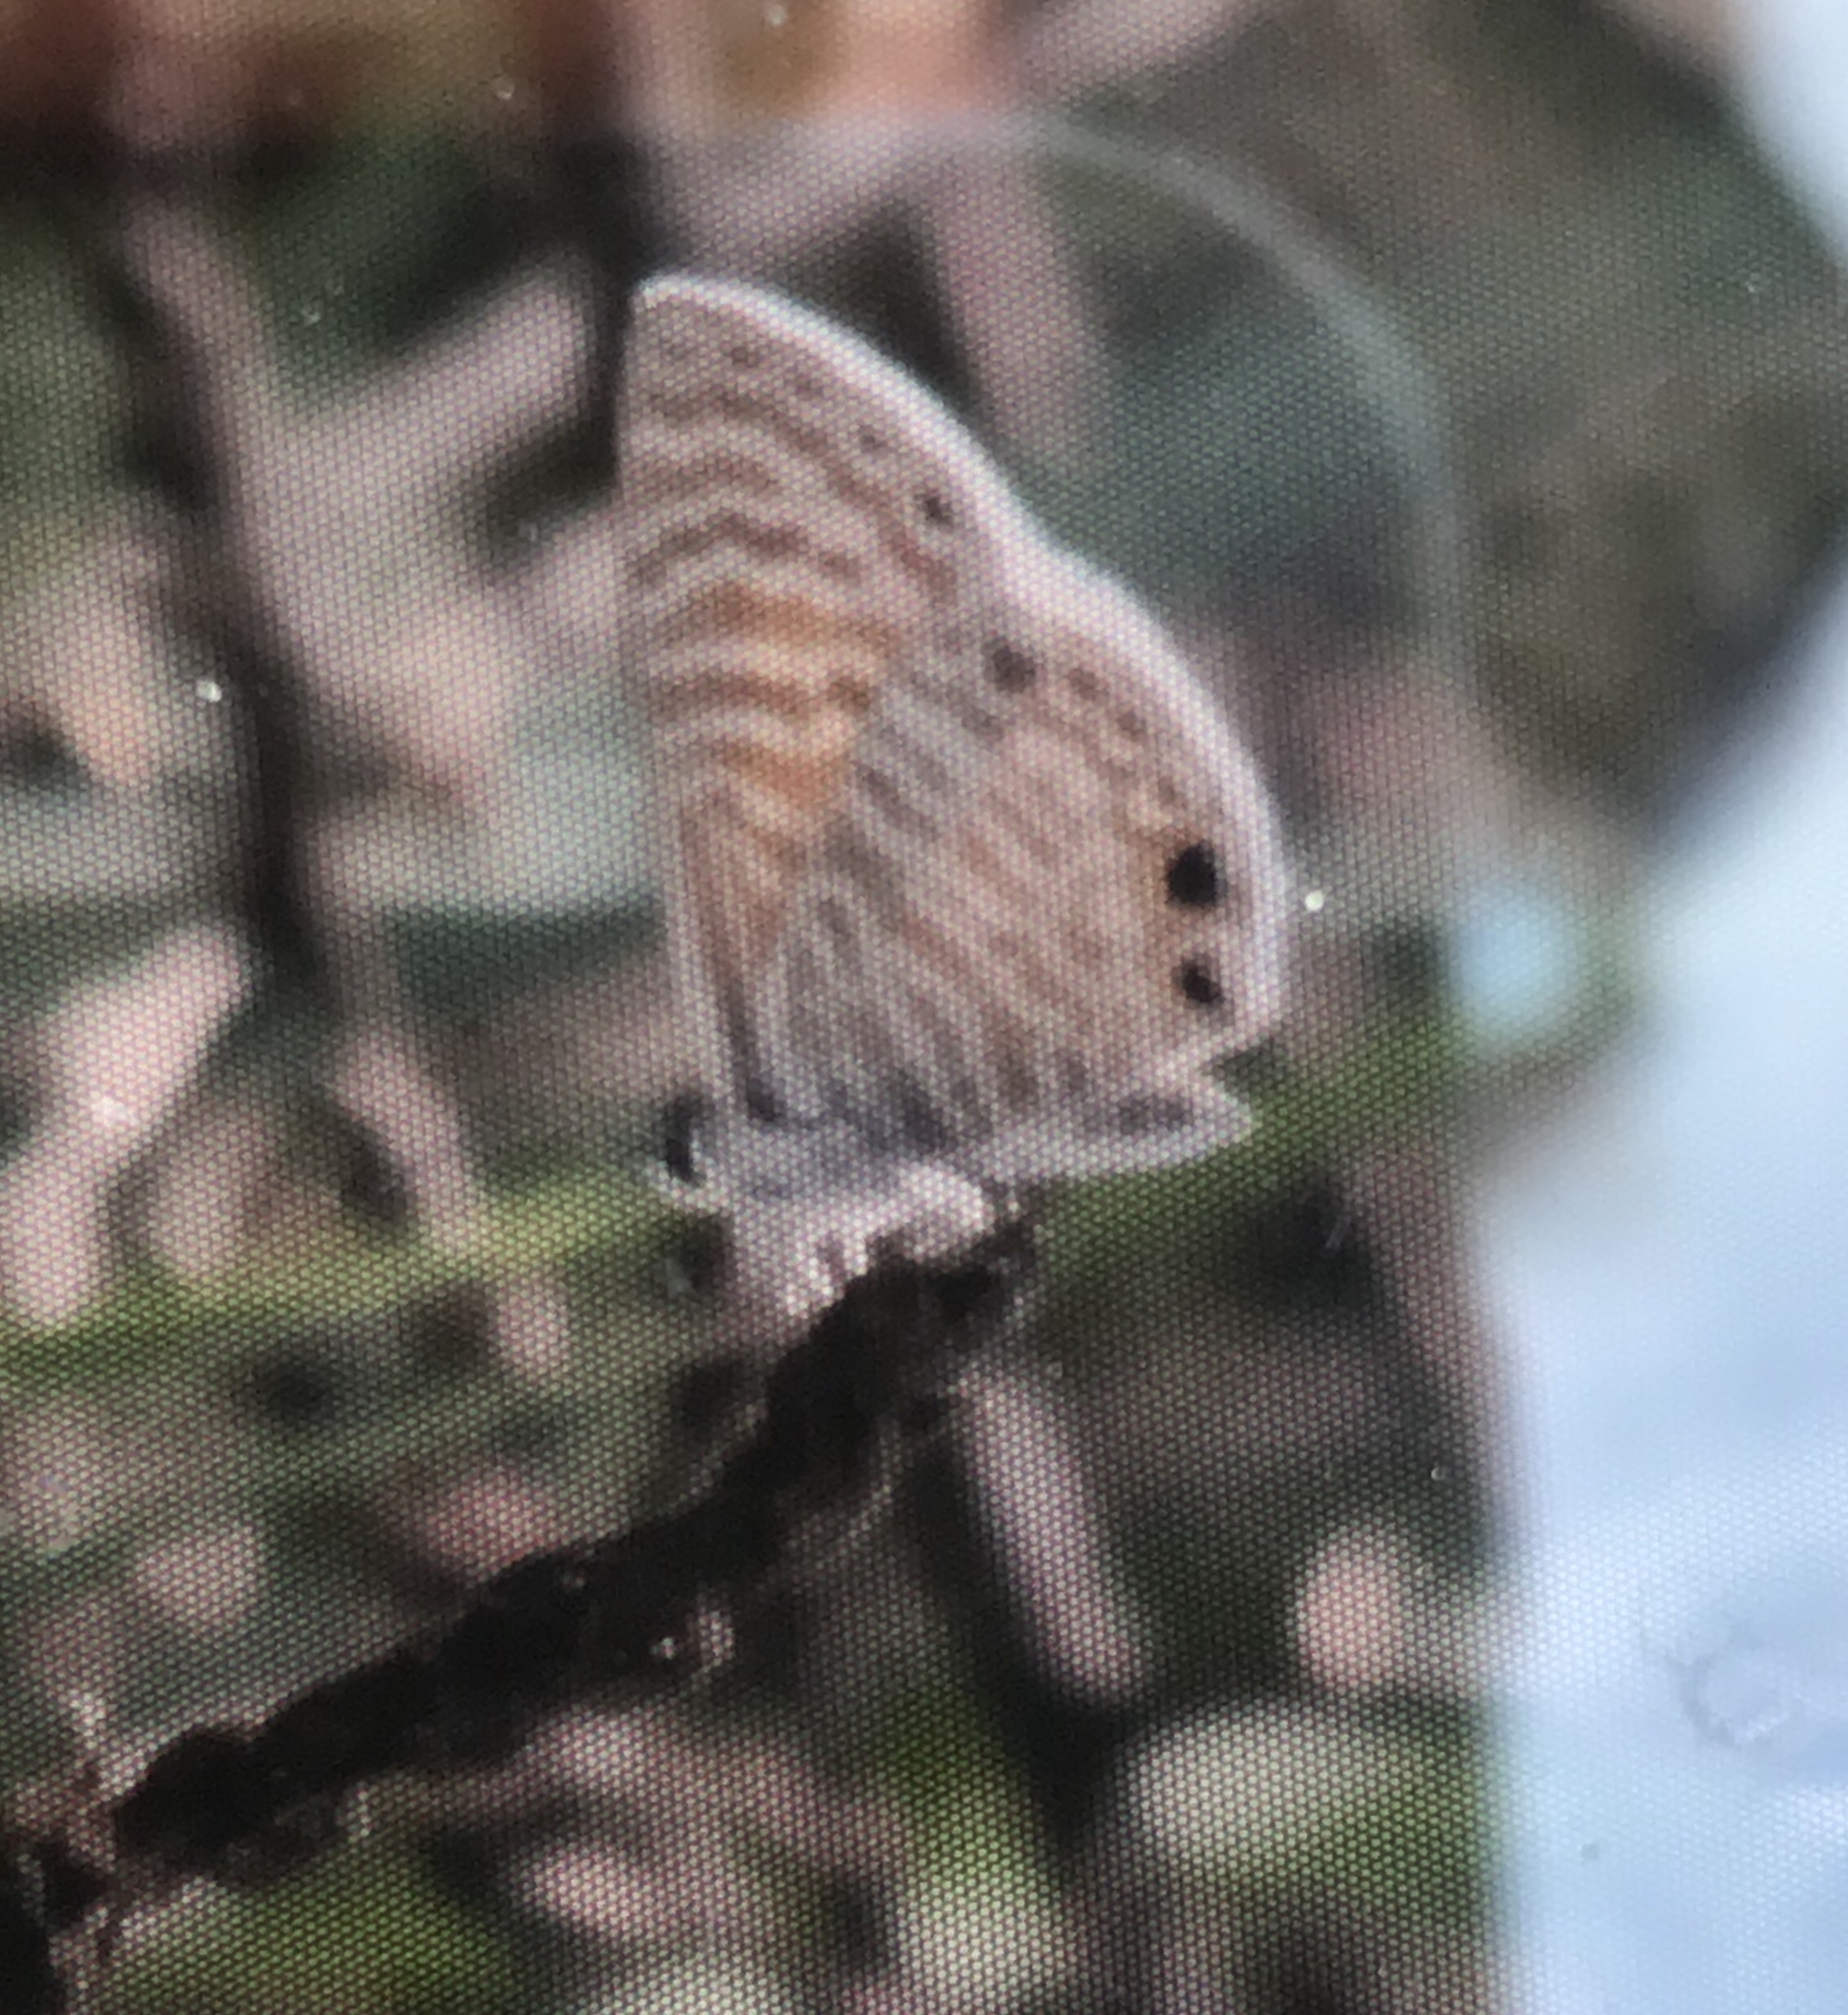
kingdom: Animalia
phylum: Arthropoda
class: Insecta
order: Lepidoptera
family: Lycaenidae
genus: Leptotes
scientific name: Leptotes marina
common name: Marine blue
